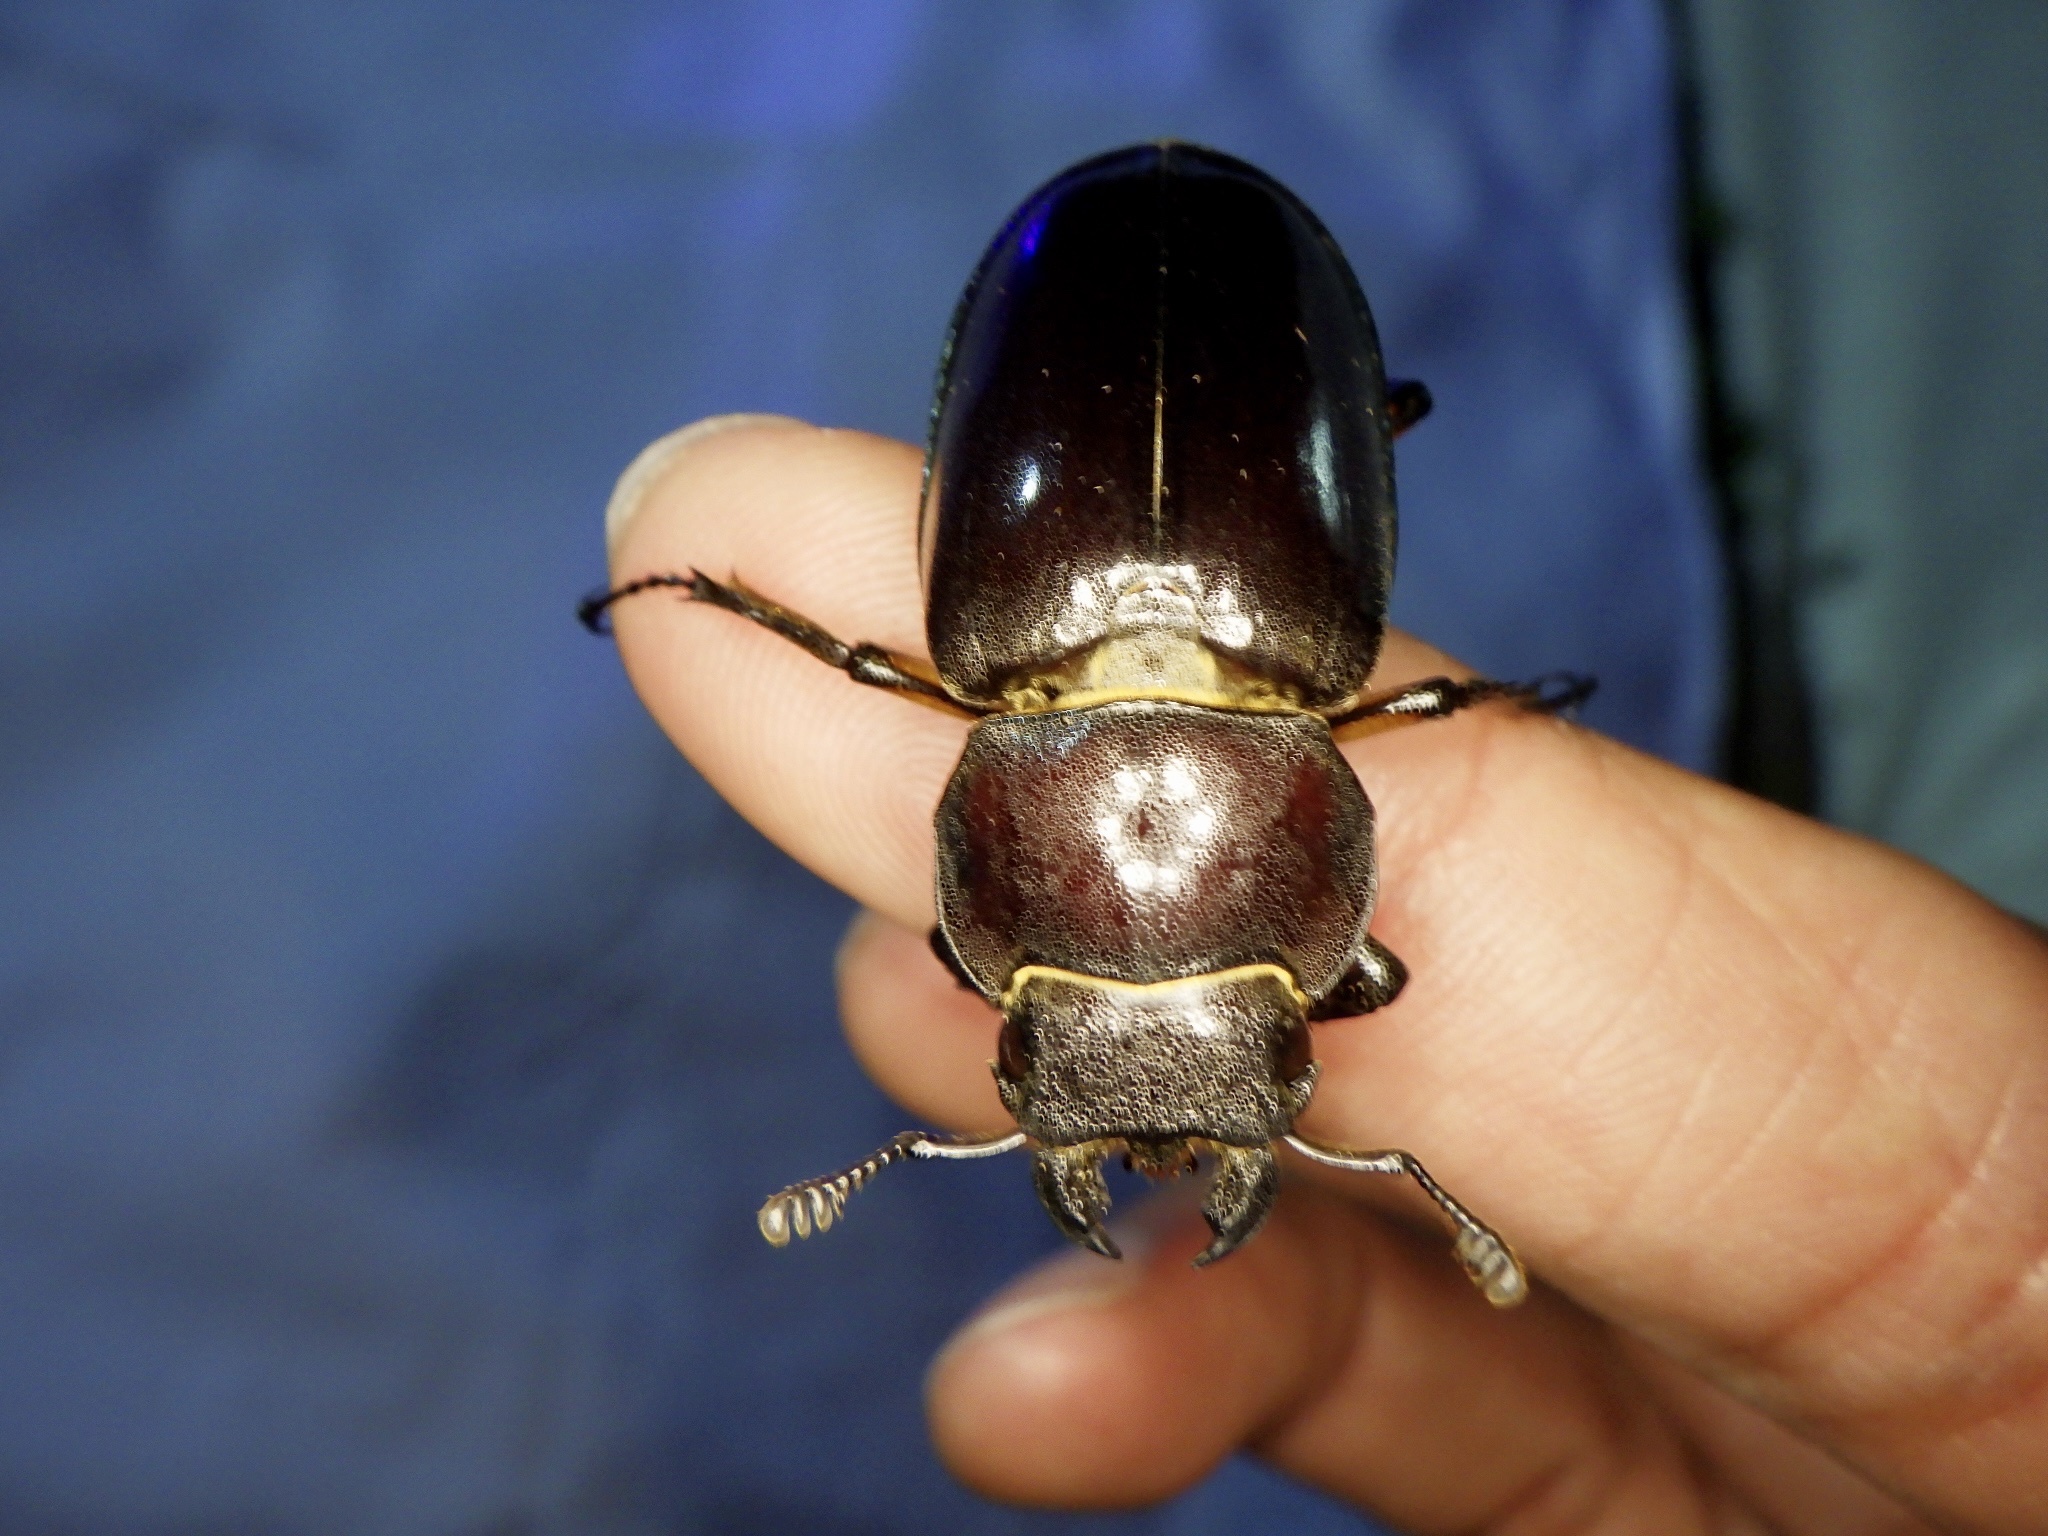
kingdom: Animalia
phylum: Arthropoda
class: Insecta
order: Coleoptera
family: Lucanidae
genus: Lucanus
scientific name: Lucanus maculifemoratus
